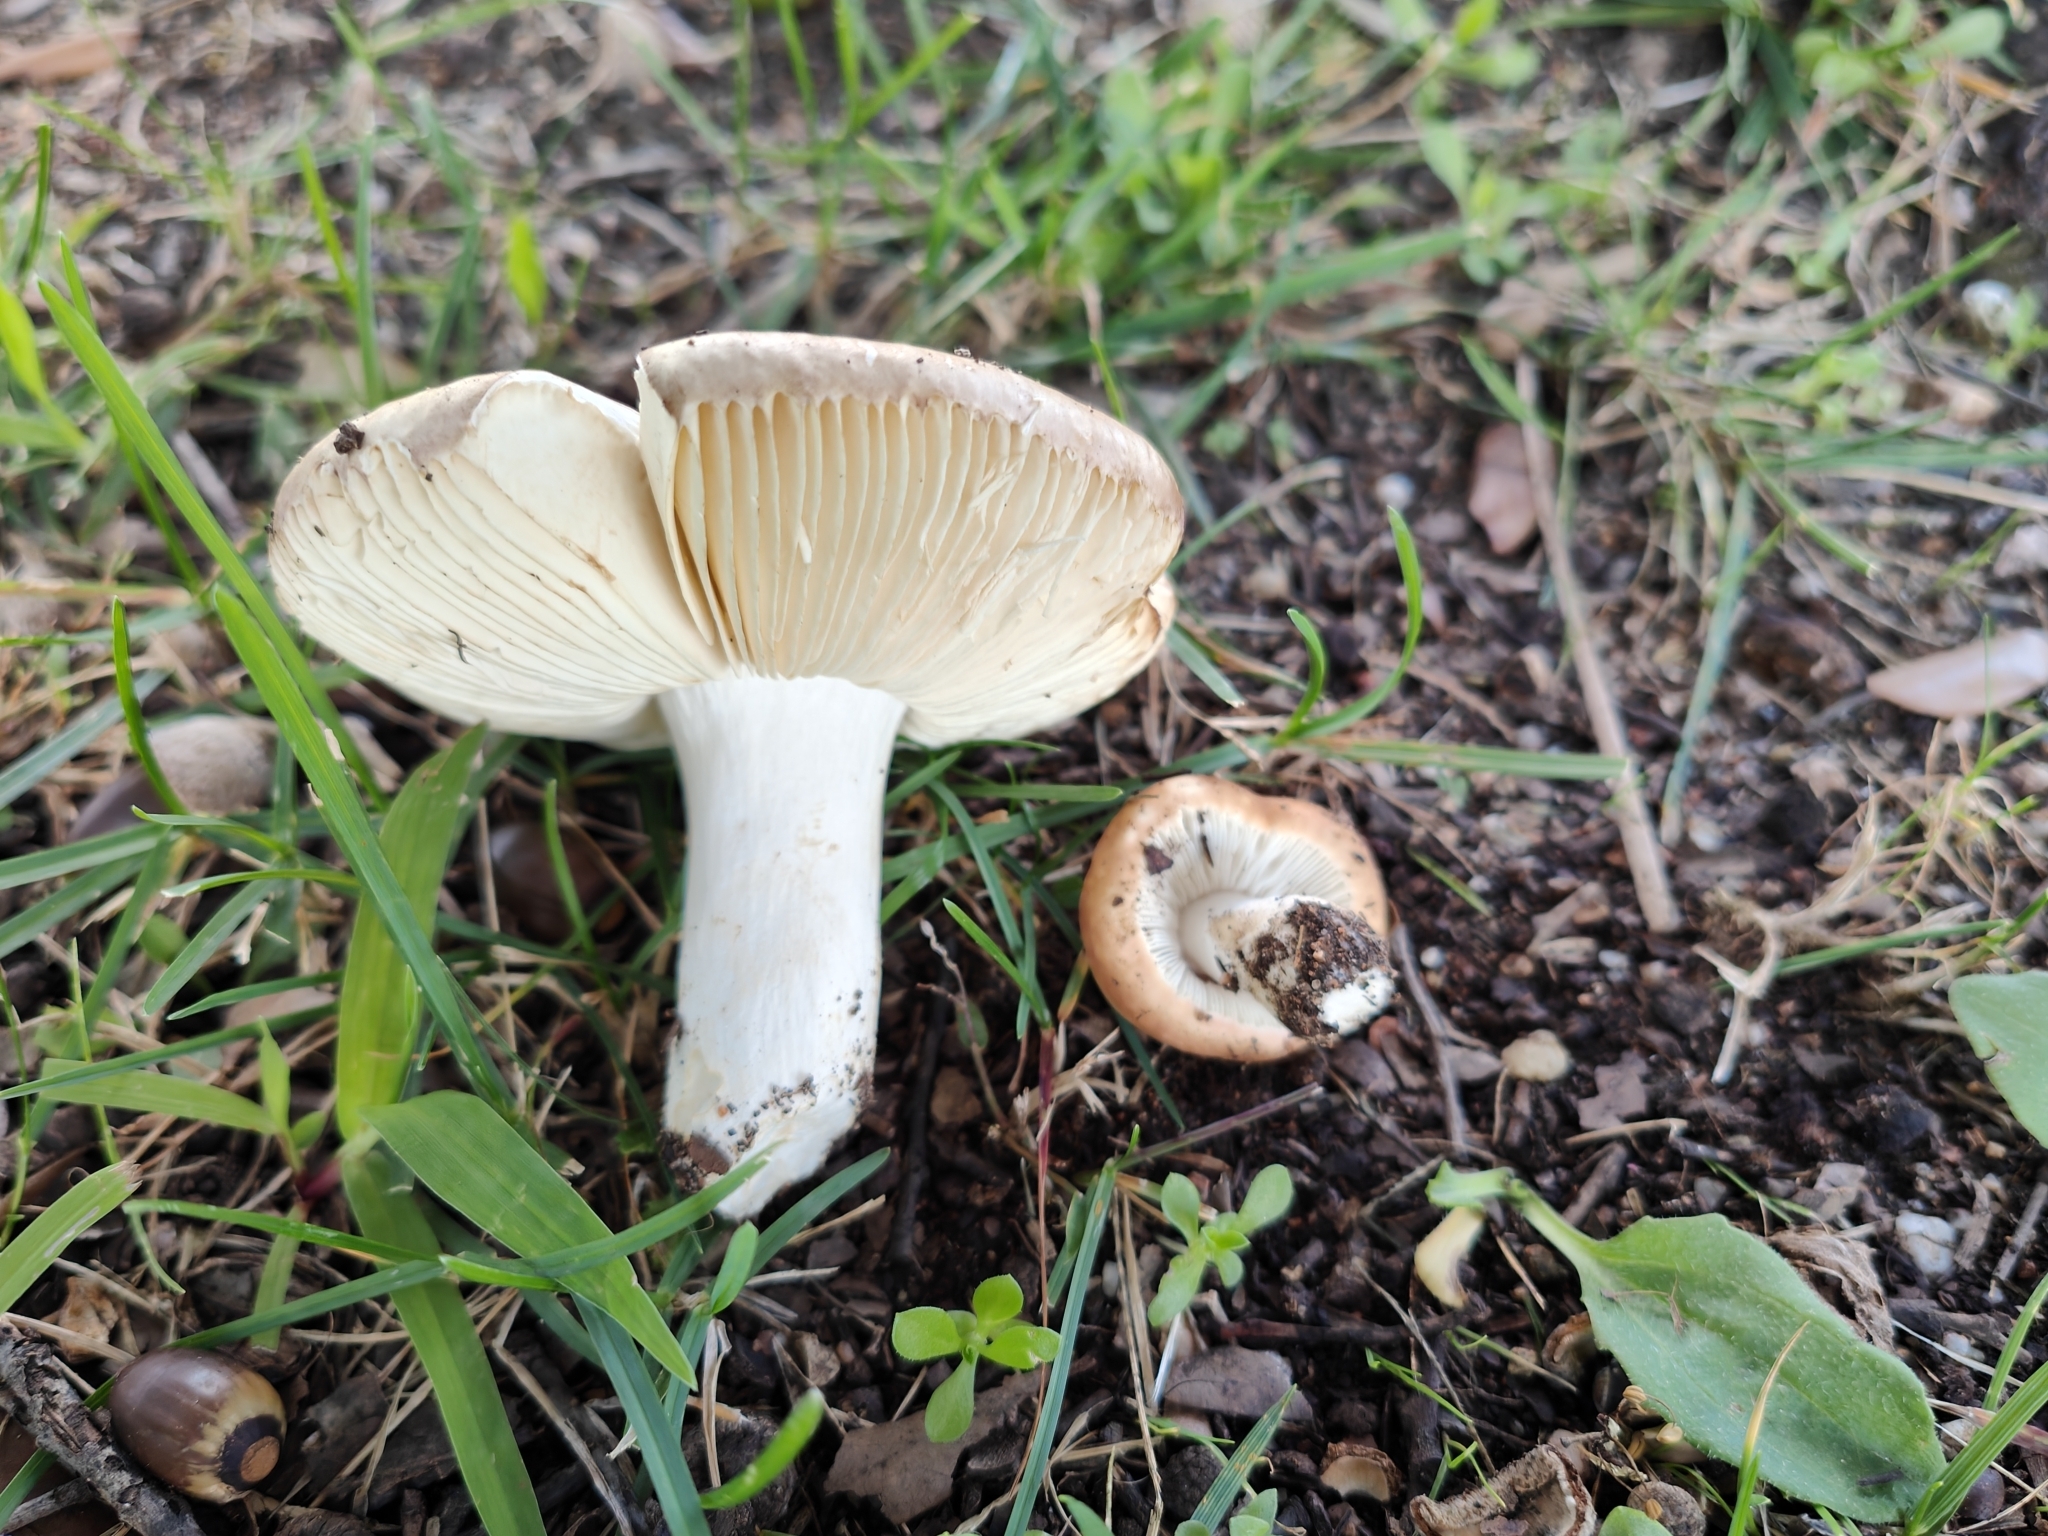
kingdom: Fungi
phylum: Basidiomycota
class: Agaricomycetes
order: Russulales
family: Russulaceae
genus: Russula
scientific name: Russula graveolens
